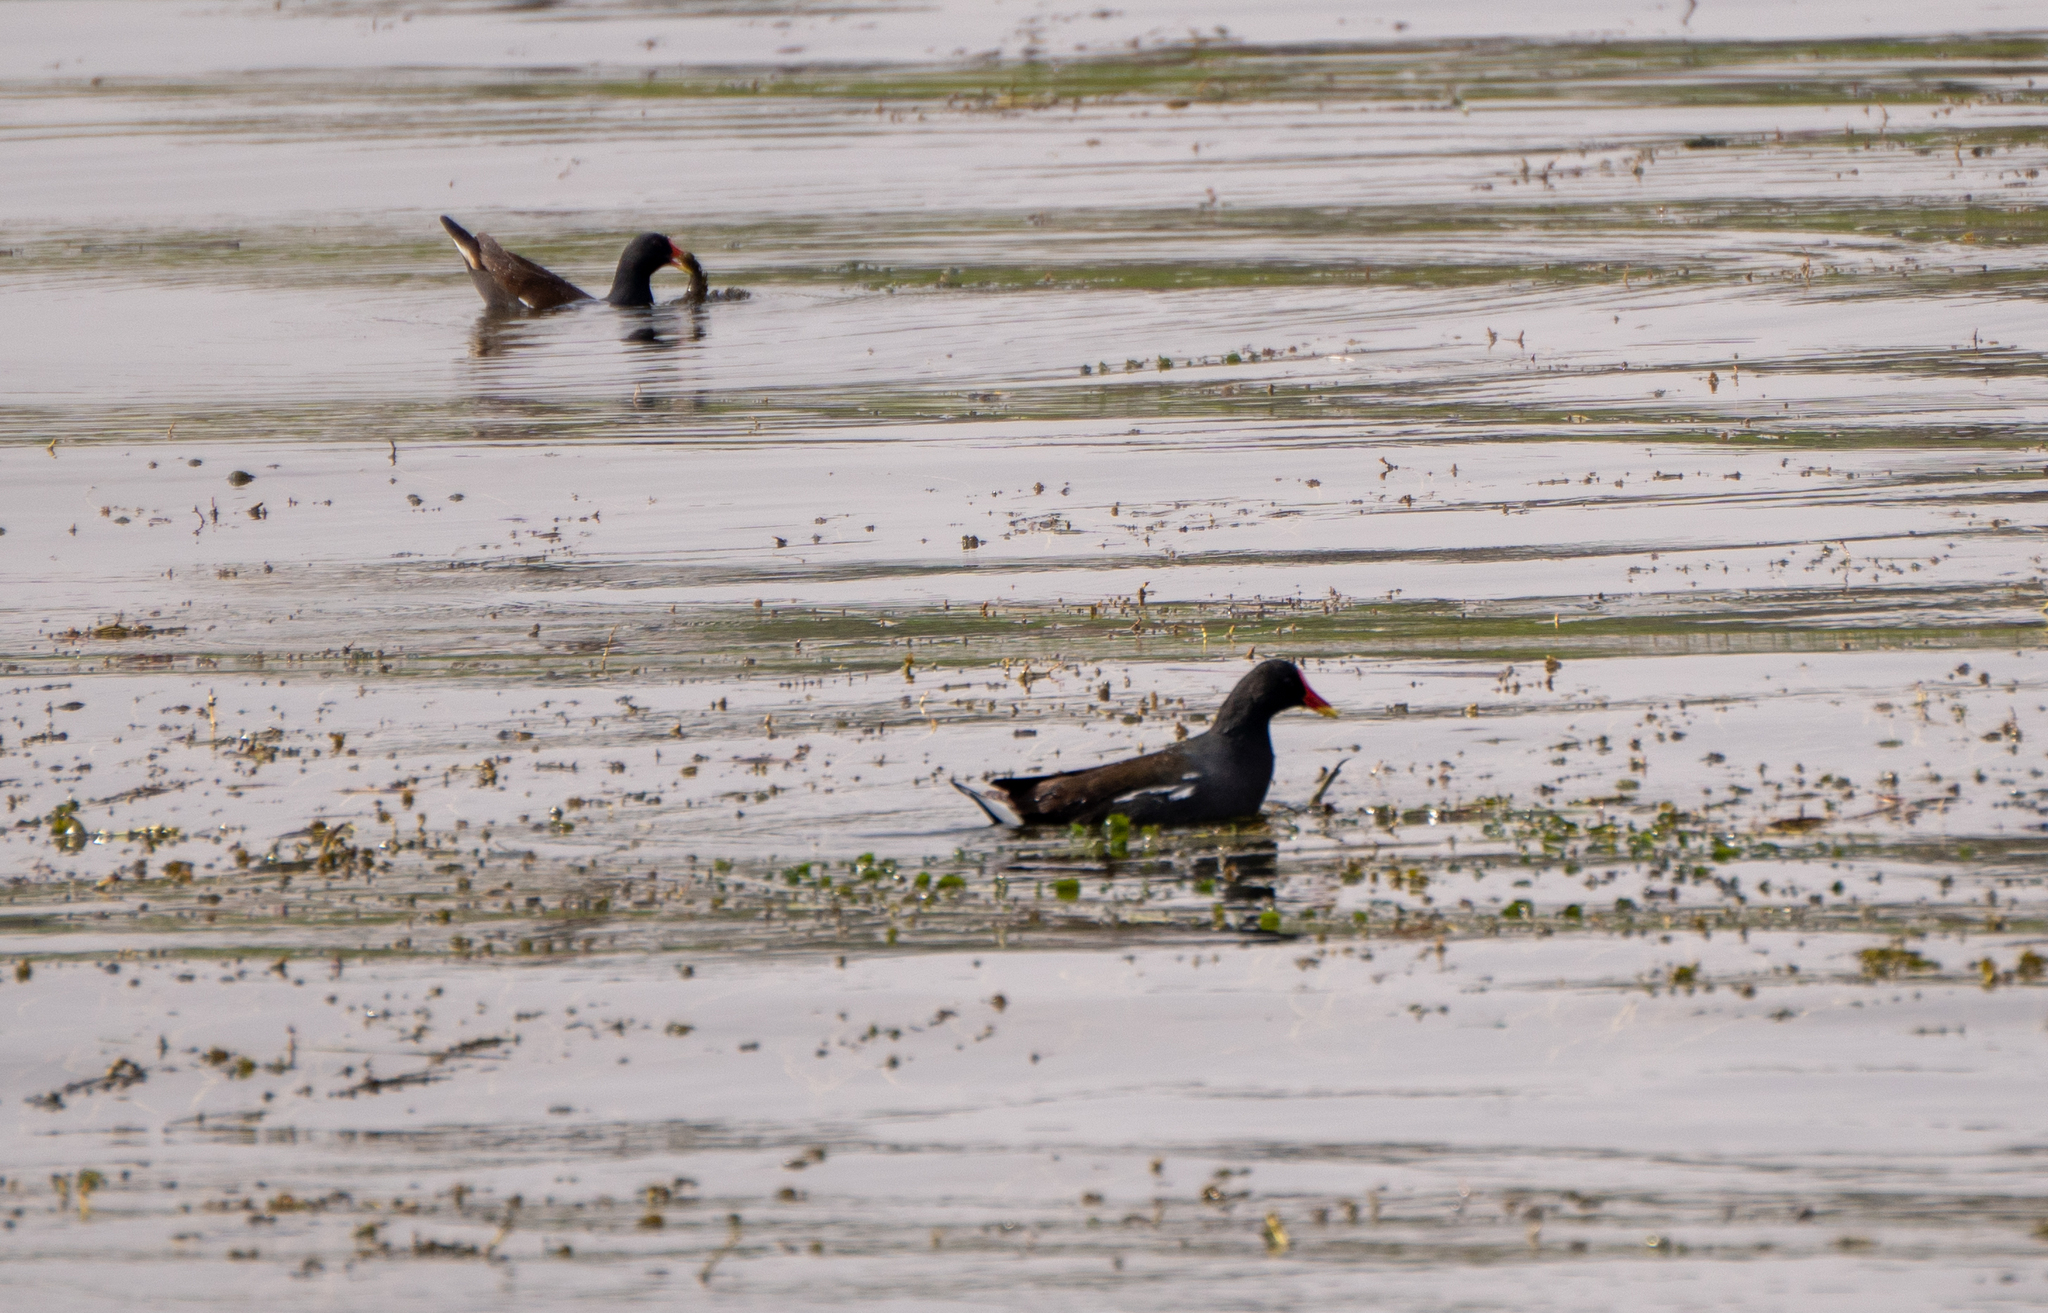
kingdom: Animalia
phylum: Chordata
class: Aves
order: Gruiformes
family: Rallidae
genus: Gallinula
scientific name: Gallinula chloropus
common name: Common moorhen
